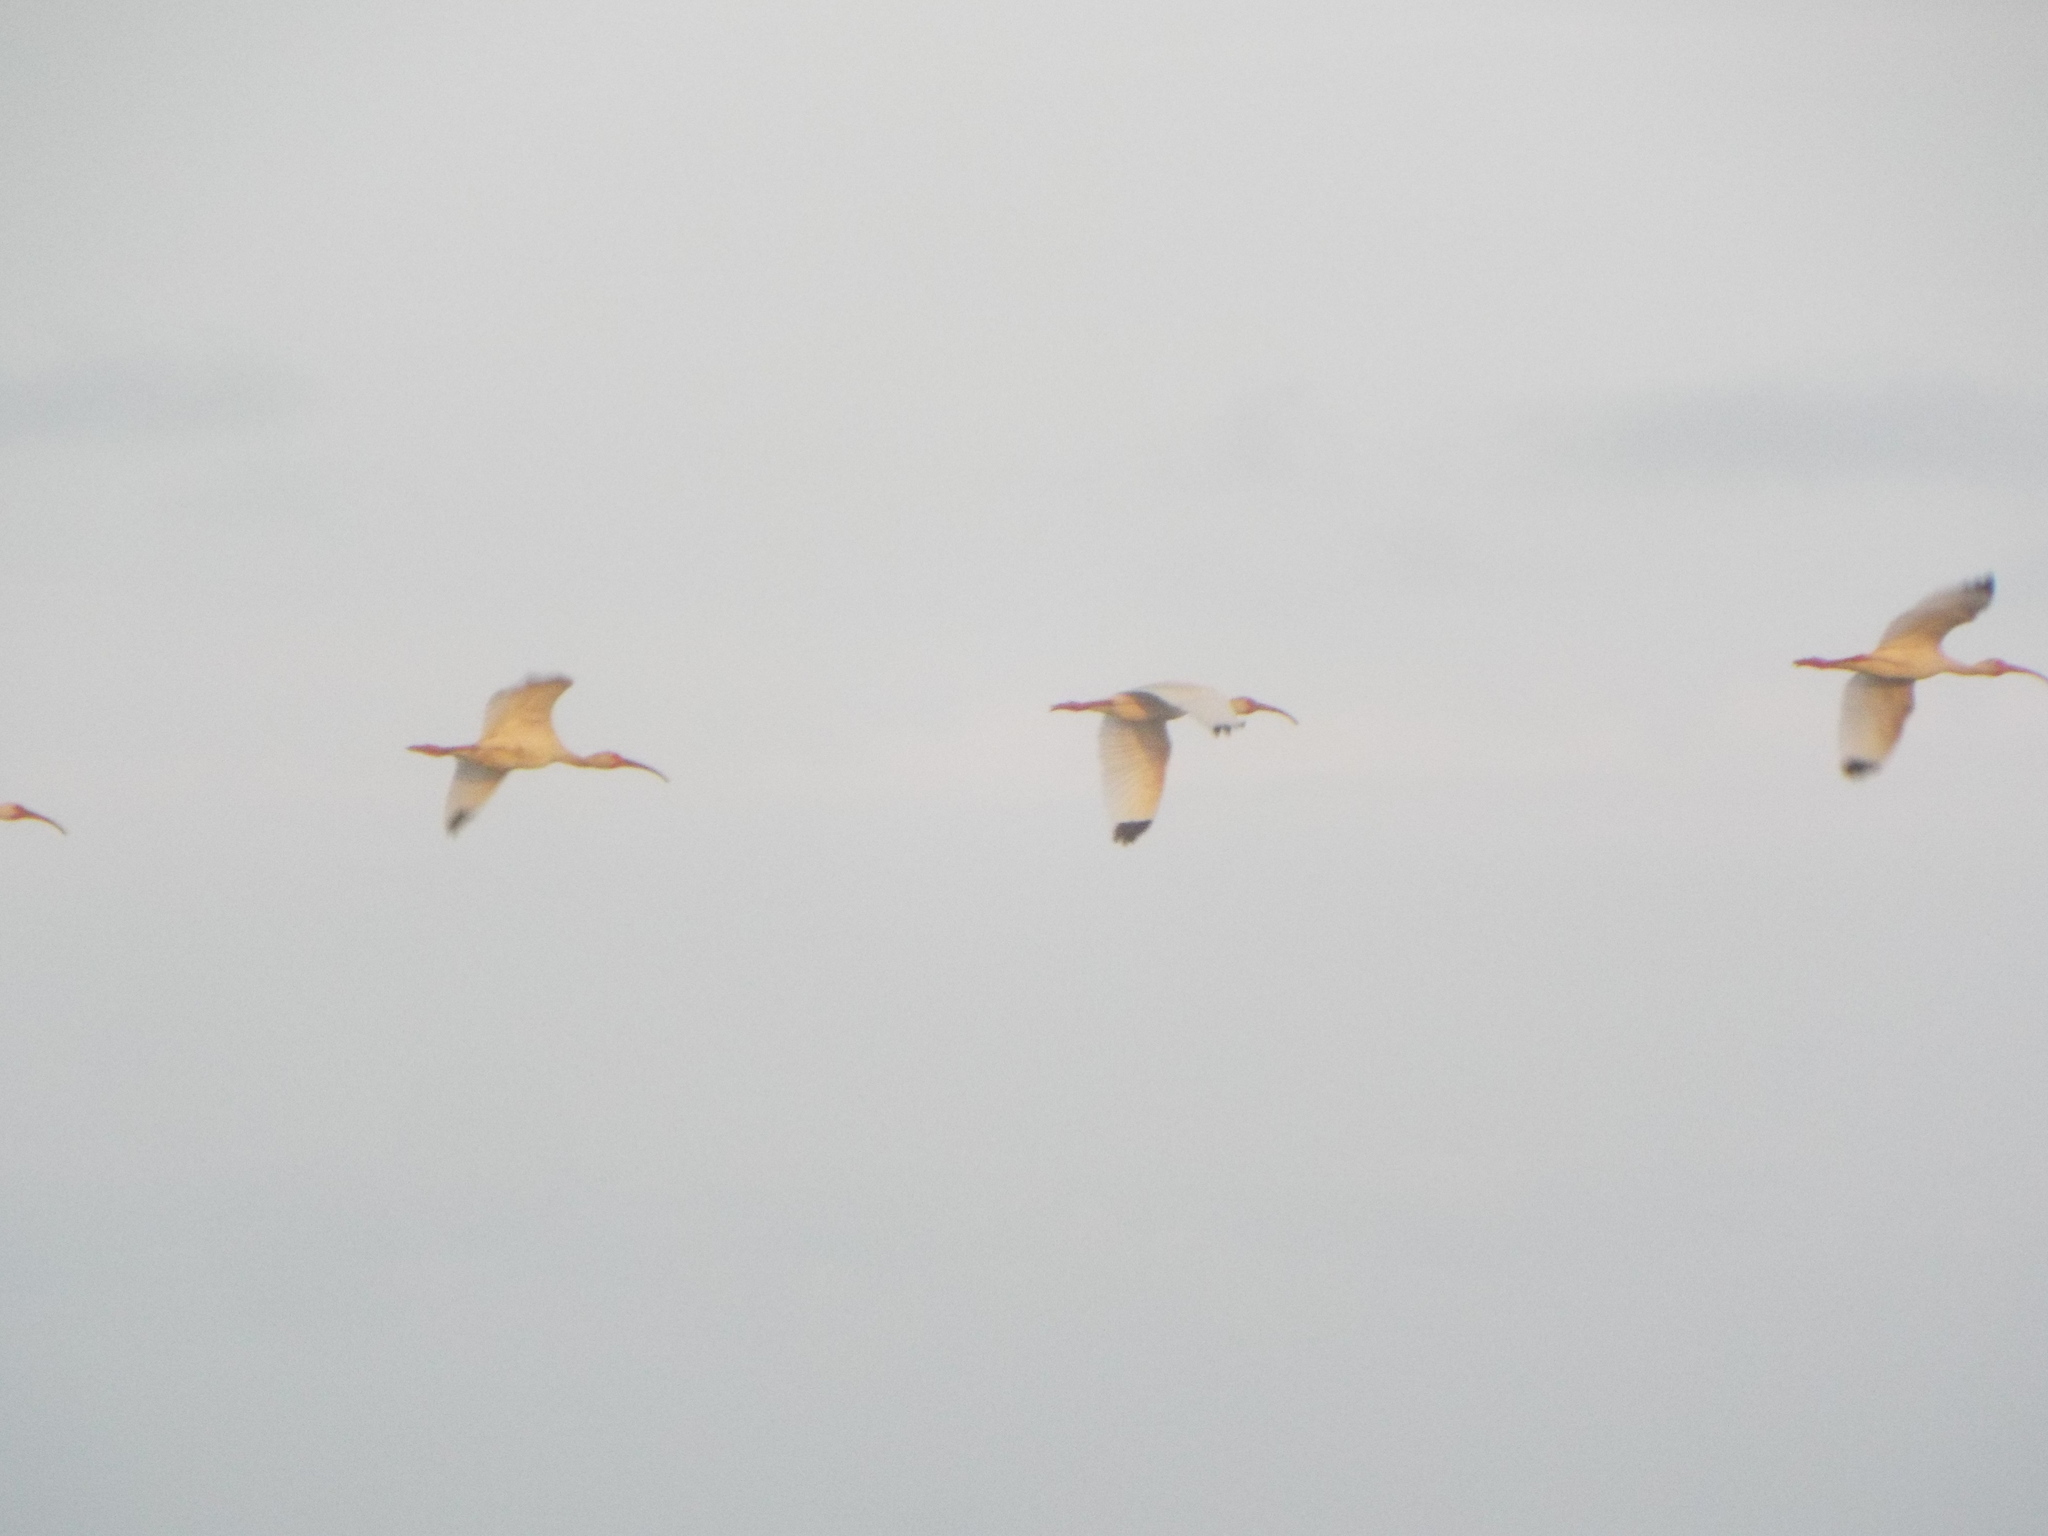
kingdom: Animalia
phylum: Chordata
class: Aves
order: Pelecaniformes
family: Threskiornithidae
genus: Eudocimus
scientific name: Eudocimus albus
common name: White ibis
